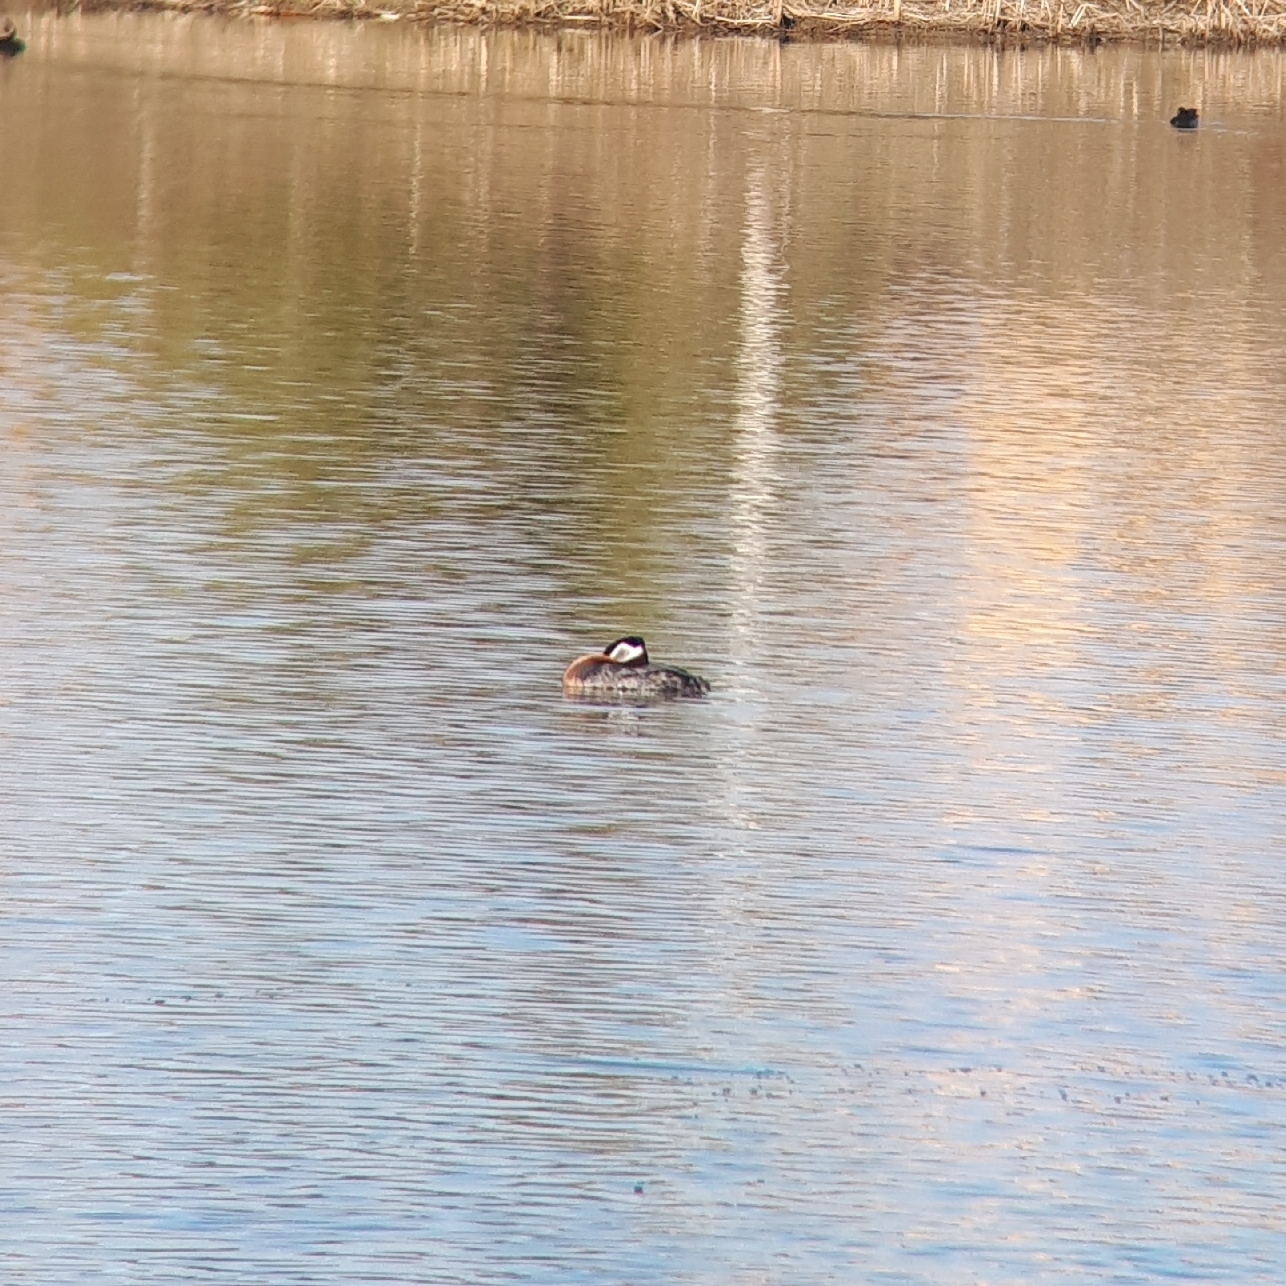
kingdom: Animalia
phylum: Chordata
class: Aves
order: Podicipediformes
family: Podicipedidae
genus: Podiceps
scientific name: Podiceps grisegena
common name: Red-necked grebe
